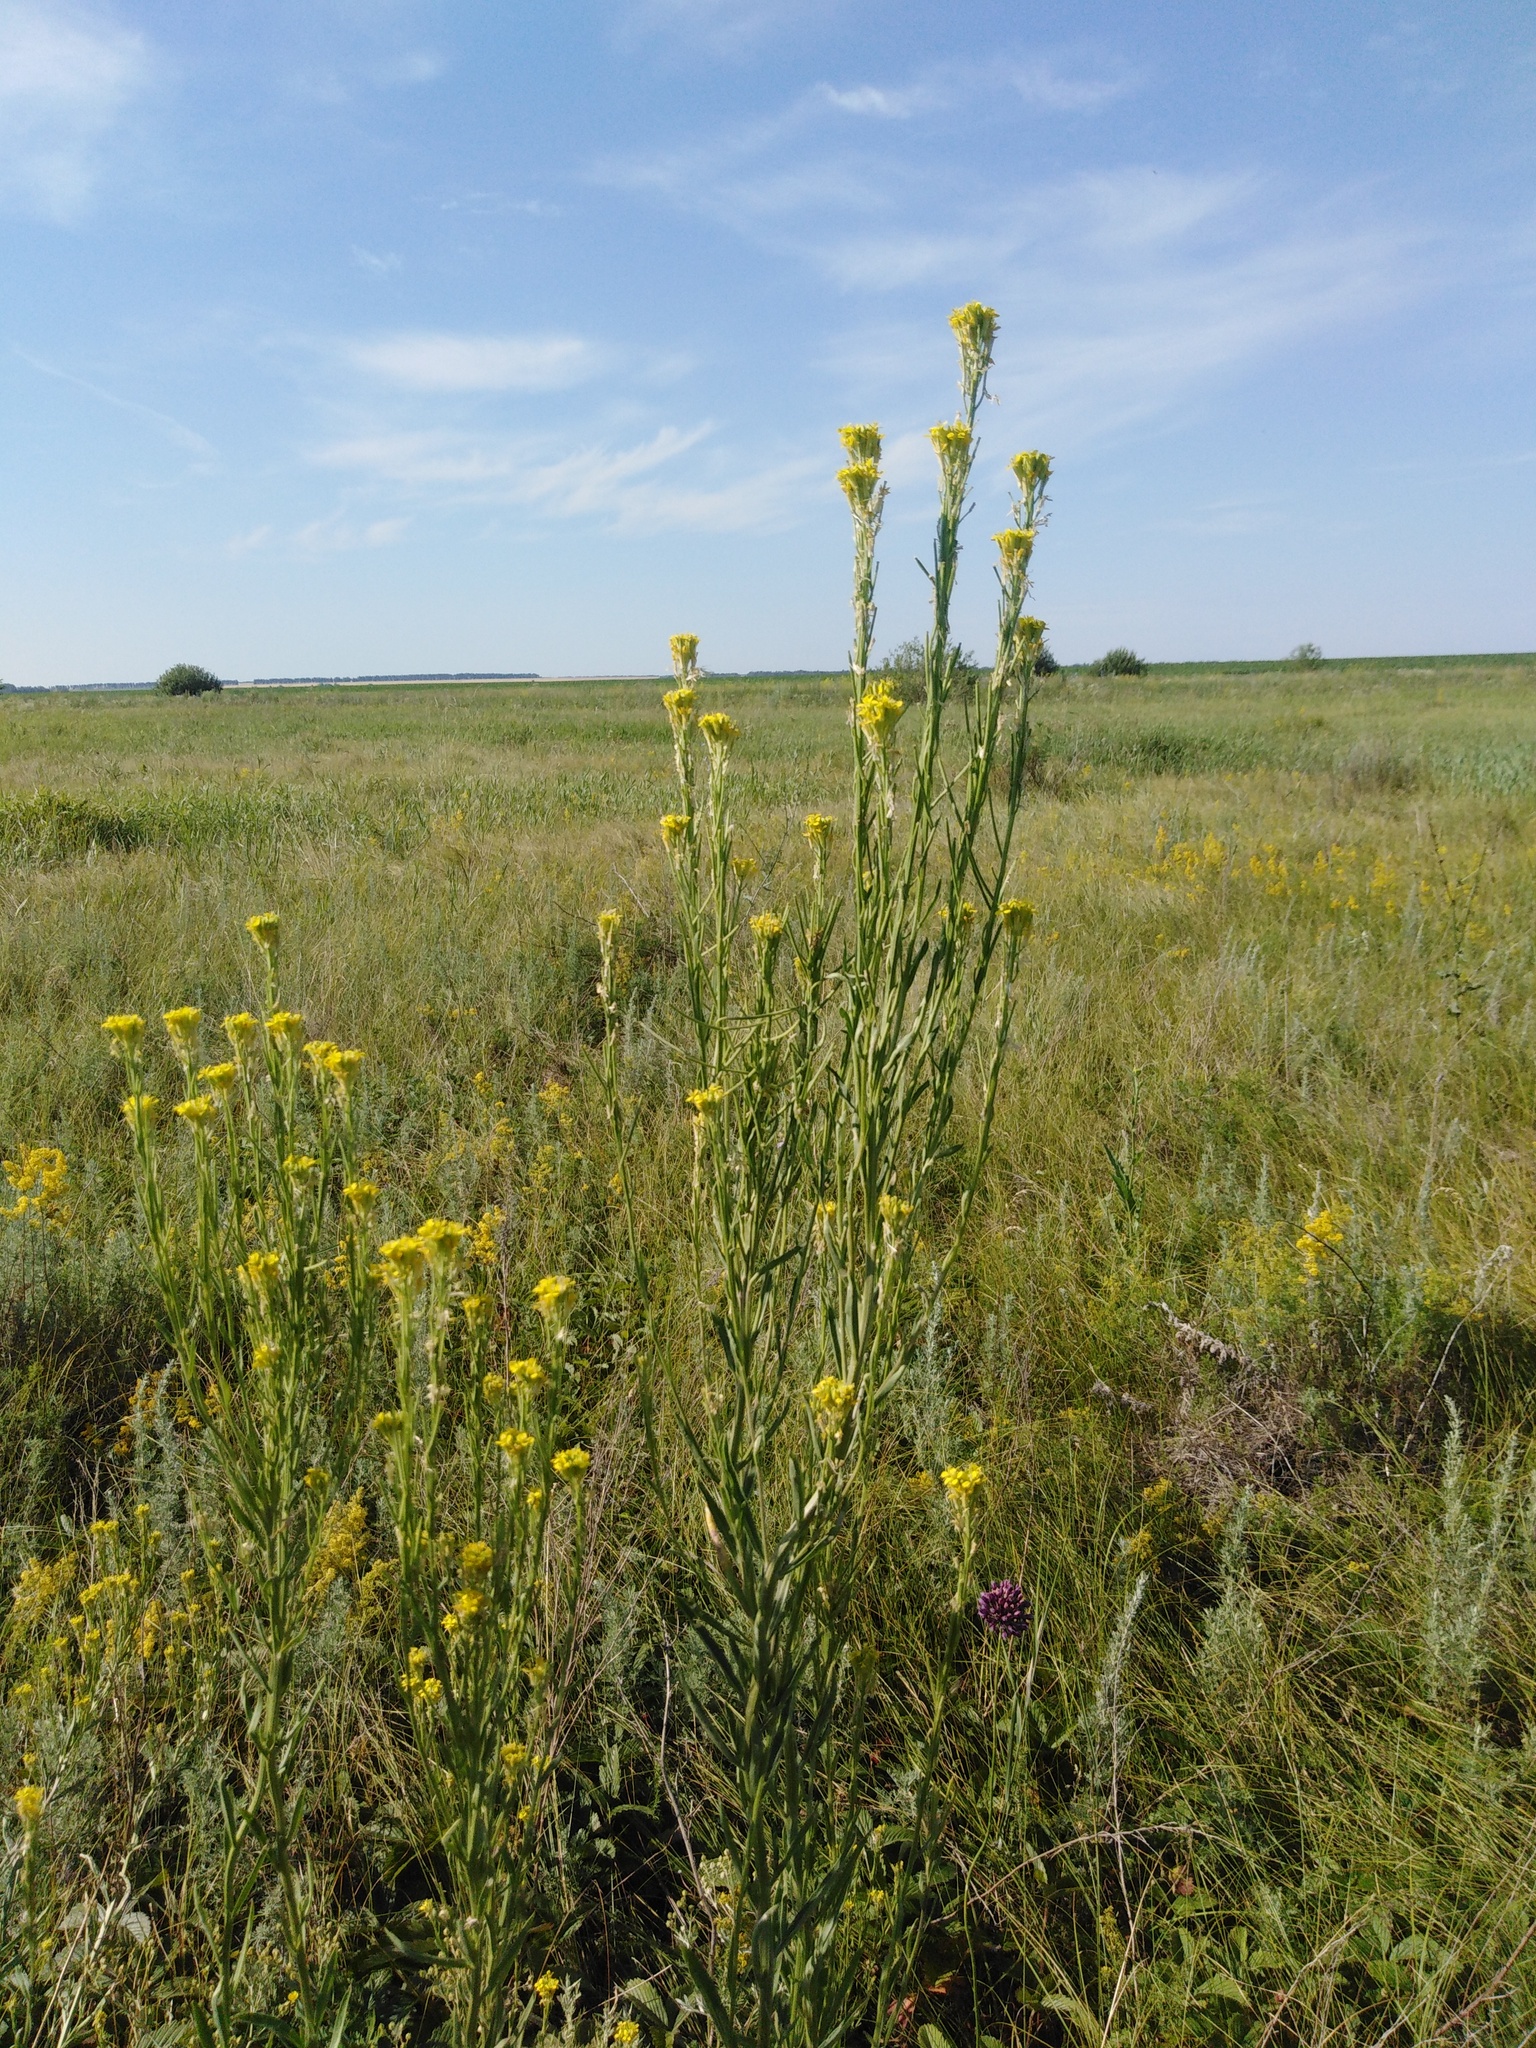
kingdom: Plantae
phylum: Tracheophyta
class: Magnoliopsida
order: Brassicales
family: Brassicaceae
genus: Erysimum
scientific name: Erysimum hieraciifolium
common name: European wallflower
